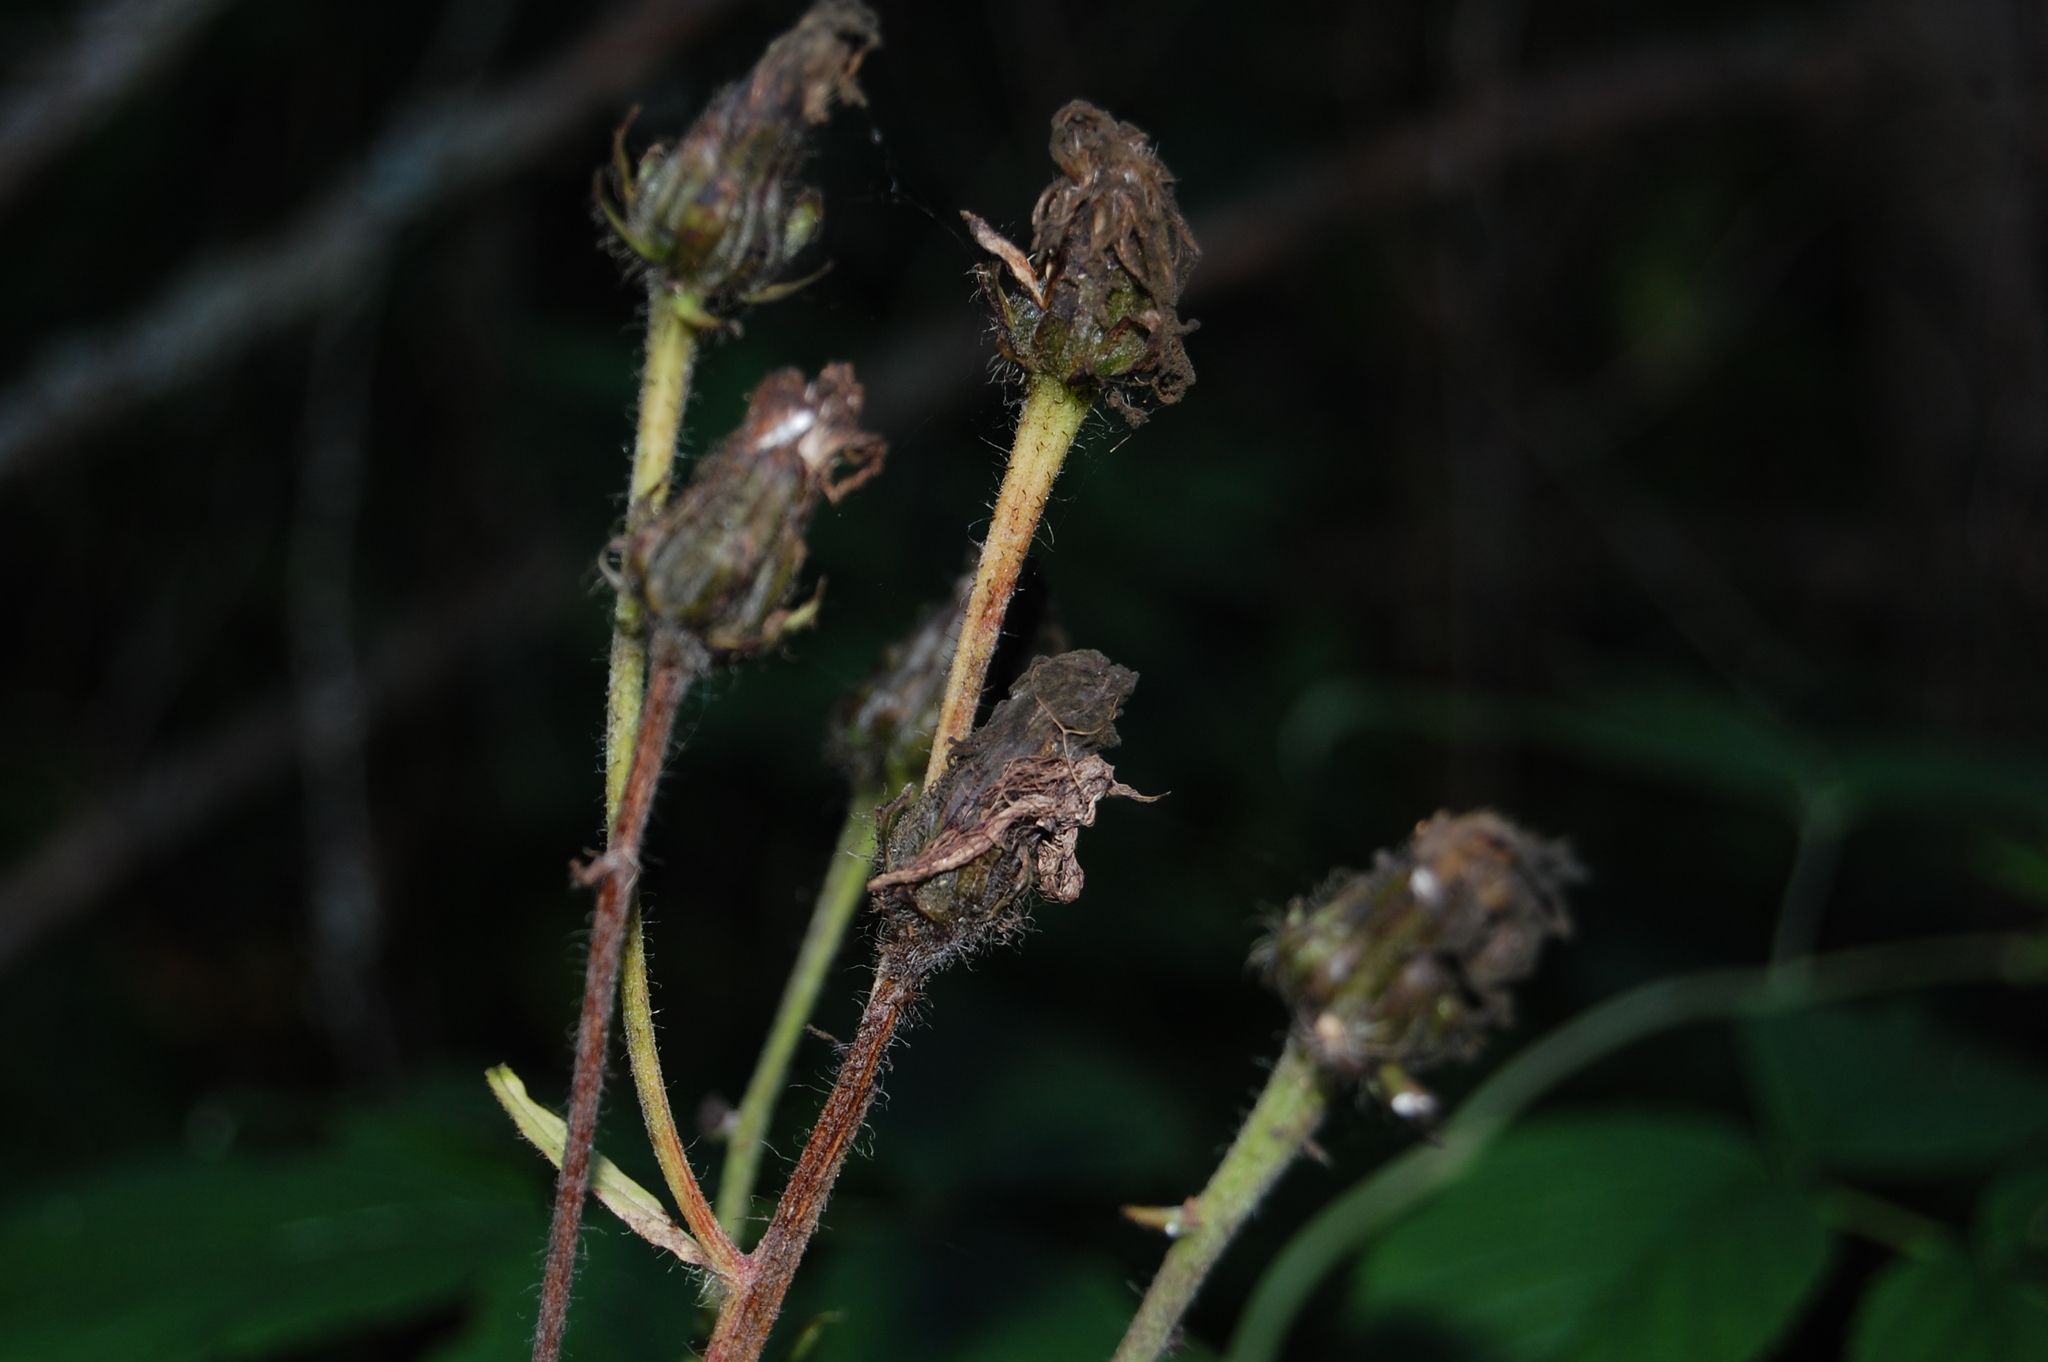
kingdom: Plantae
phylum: Tracheophyta
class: Magnoliopsida
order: Asterales
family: Asteraceae
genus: Crepis
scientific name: Crepis sibirica
